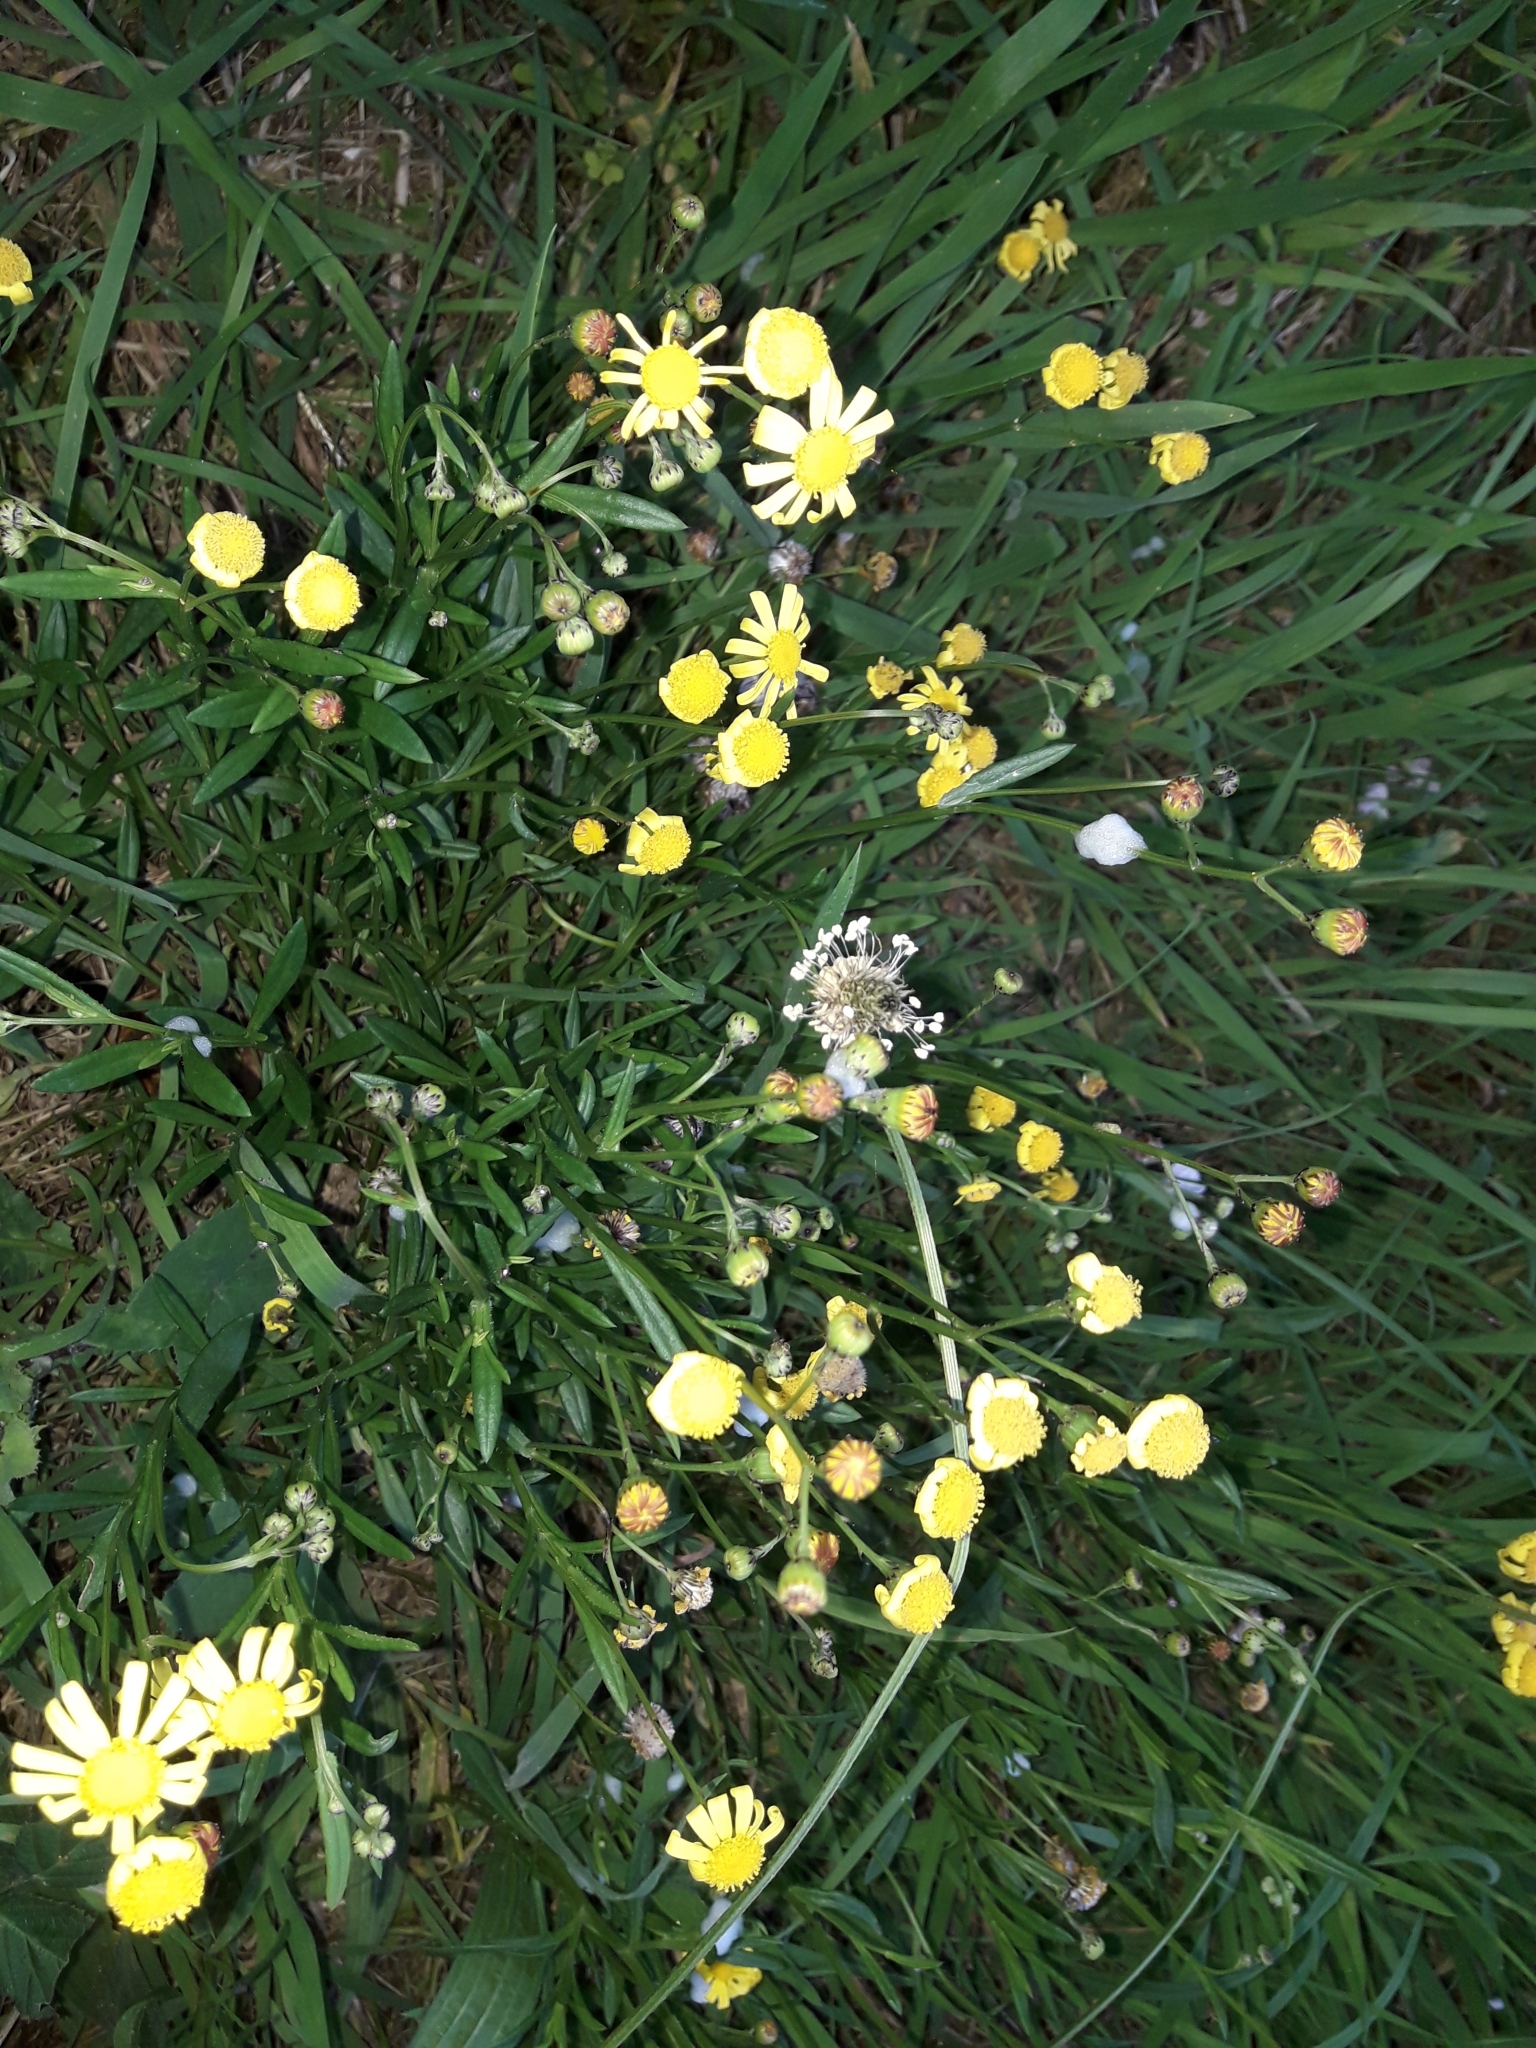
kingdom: Plantae
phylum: Tracheophyta
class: Magnoliopsida
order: Asterales
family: Asteraceae
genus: Senecio
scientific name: Senecio skirrhodon
